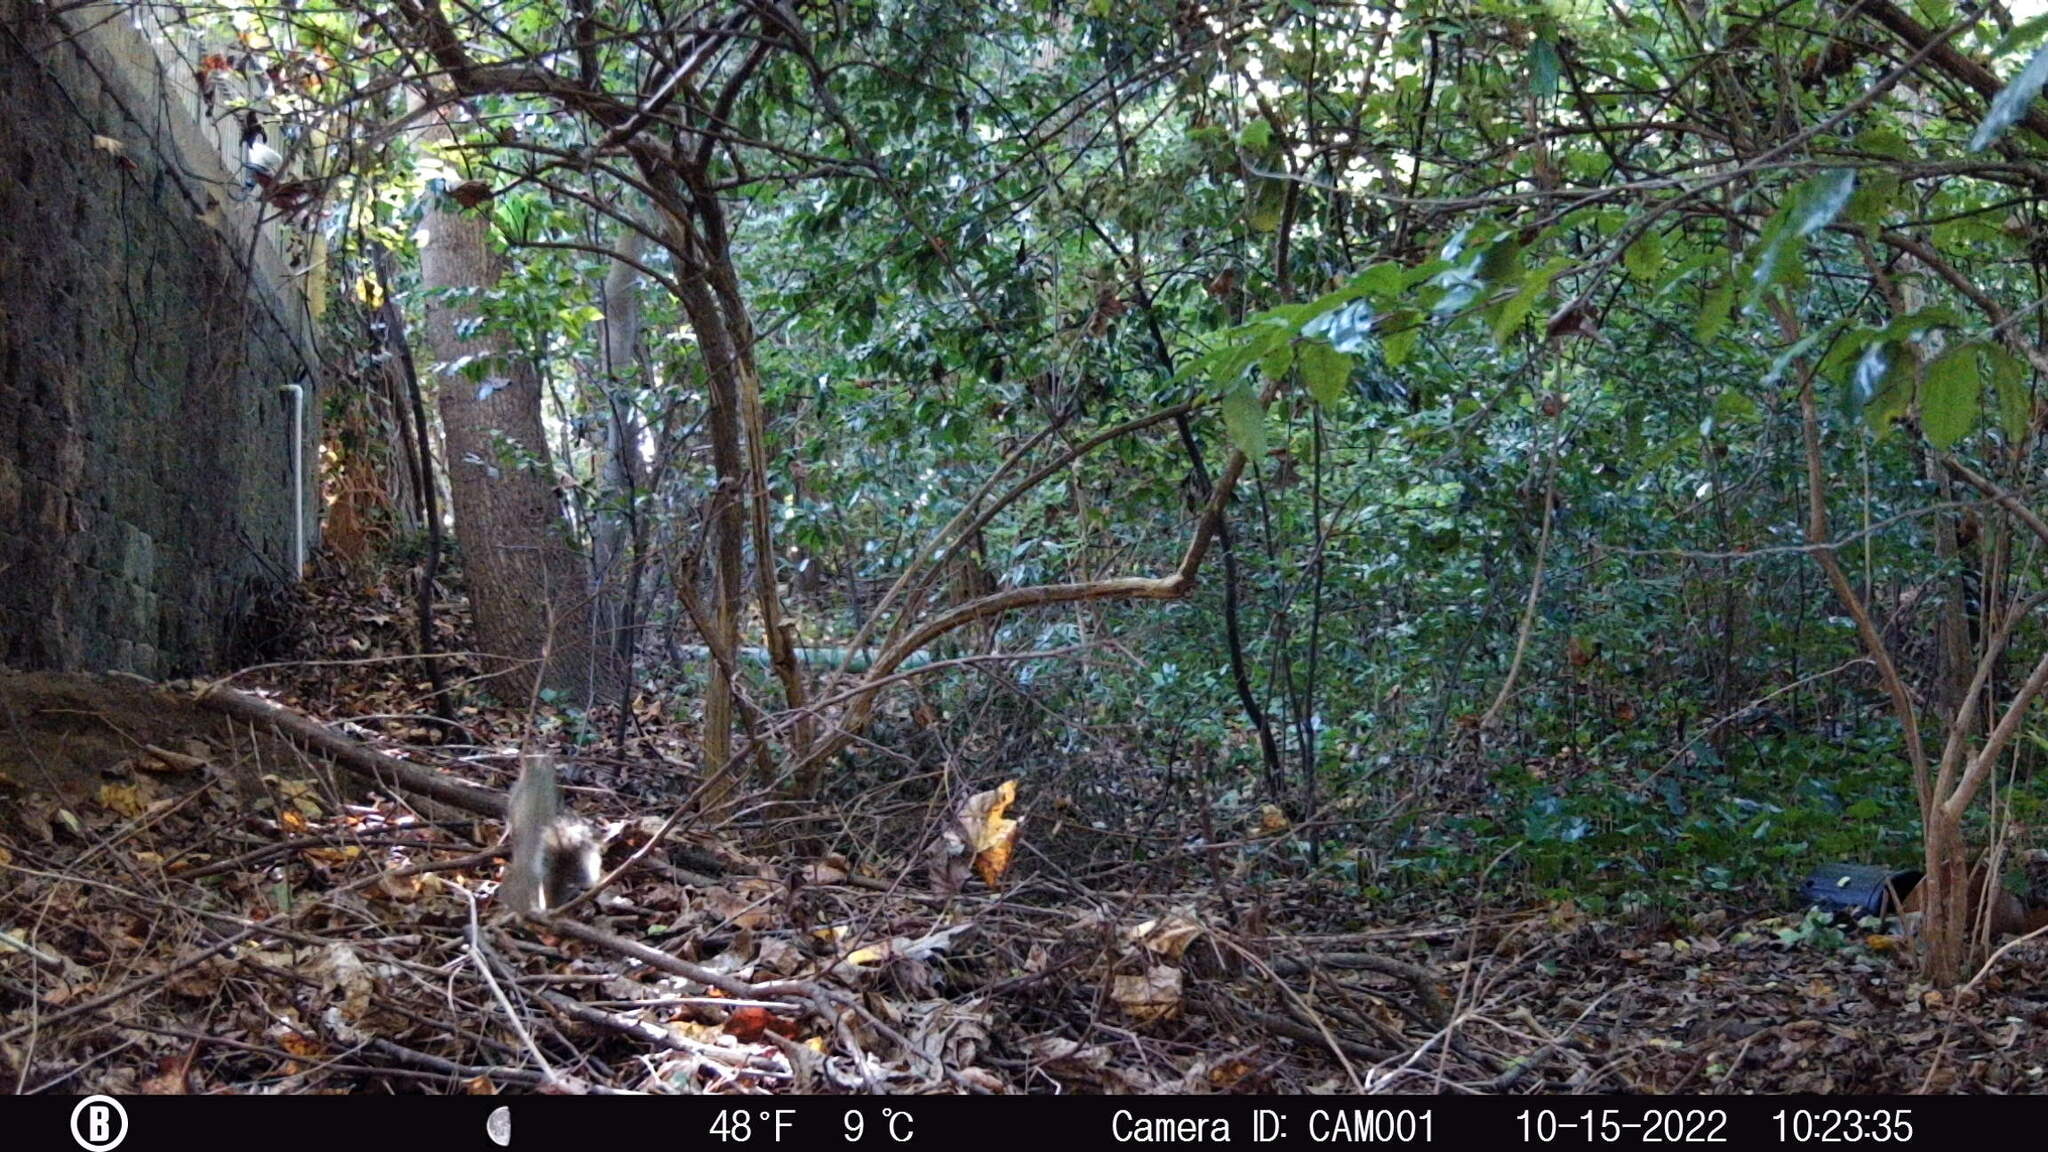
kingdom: Animalia
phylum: Chordata
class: Mammalia
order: Rodentia
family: Sciuridae
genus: Sciurus
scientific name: Sciurus carolinensis
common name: Eastern gray squirrel
